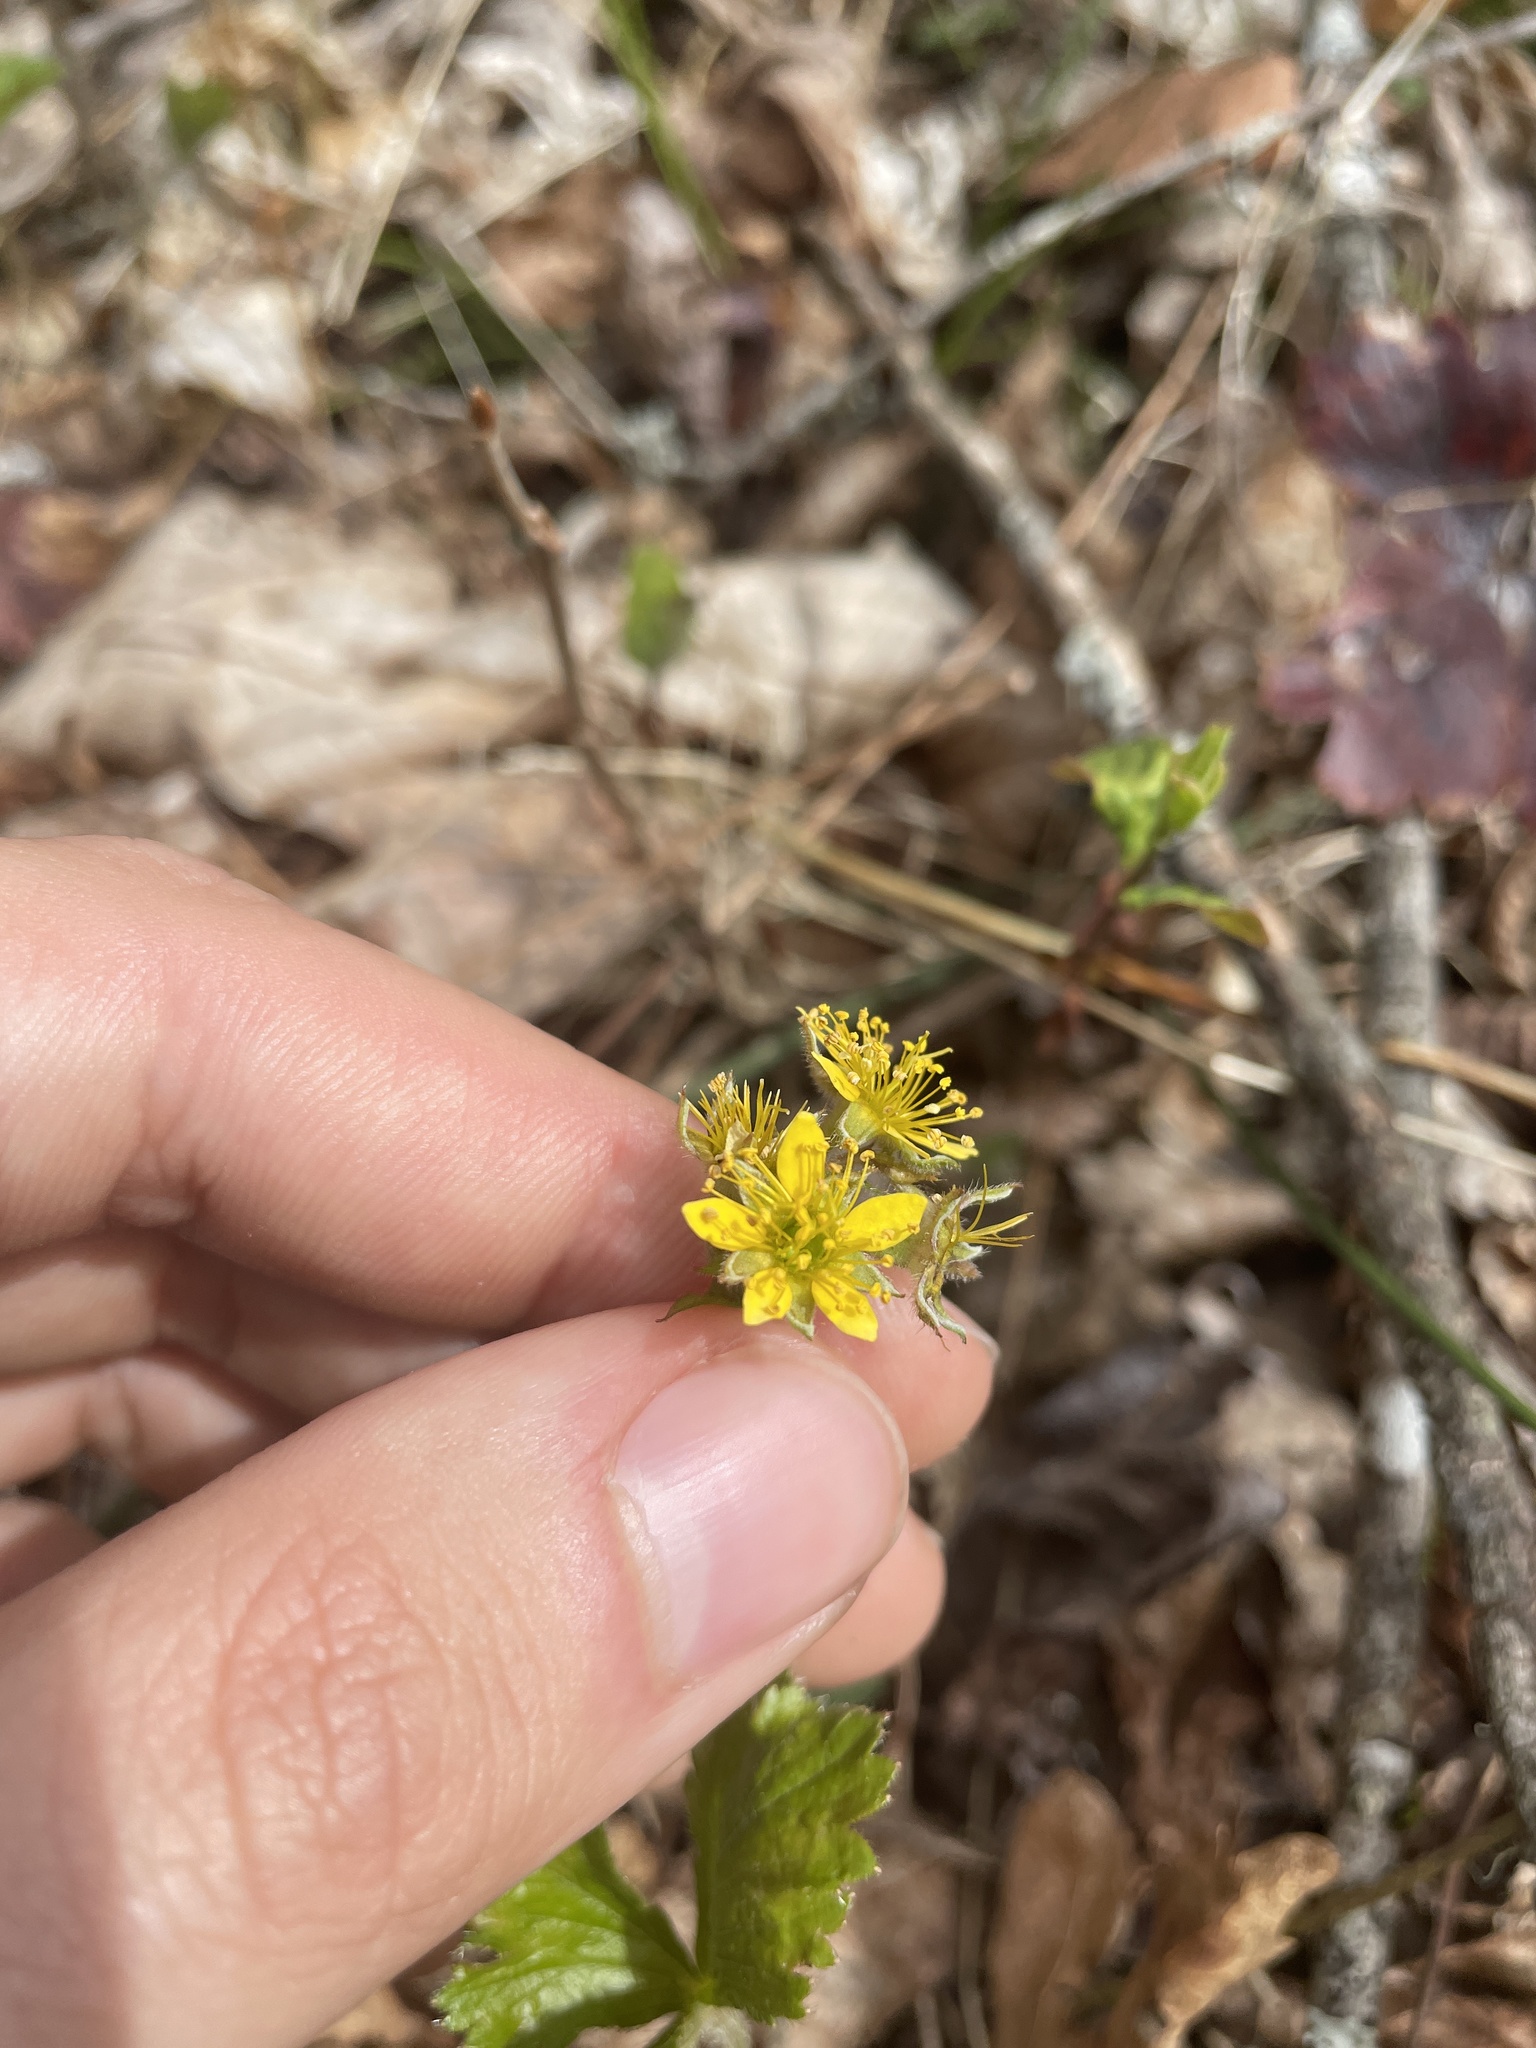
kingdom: Plantae
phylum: Tracheophyta
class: Magnoliopsida
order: Rosales
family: Rosaceae
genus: Geum
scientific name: Geum lobatum
